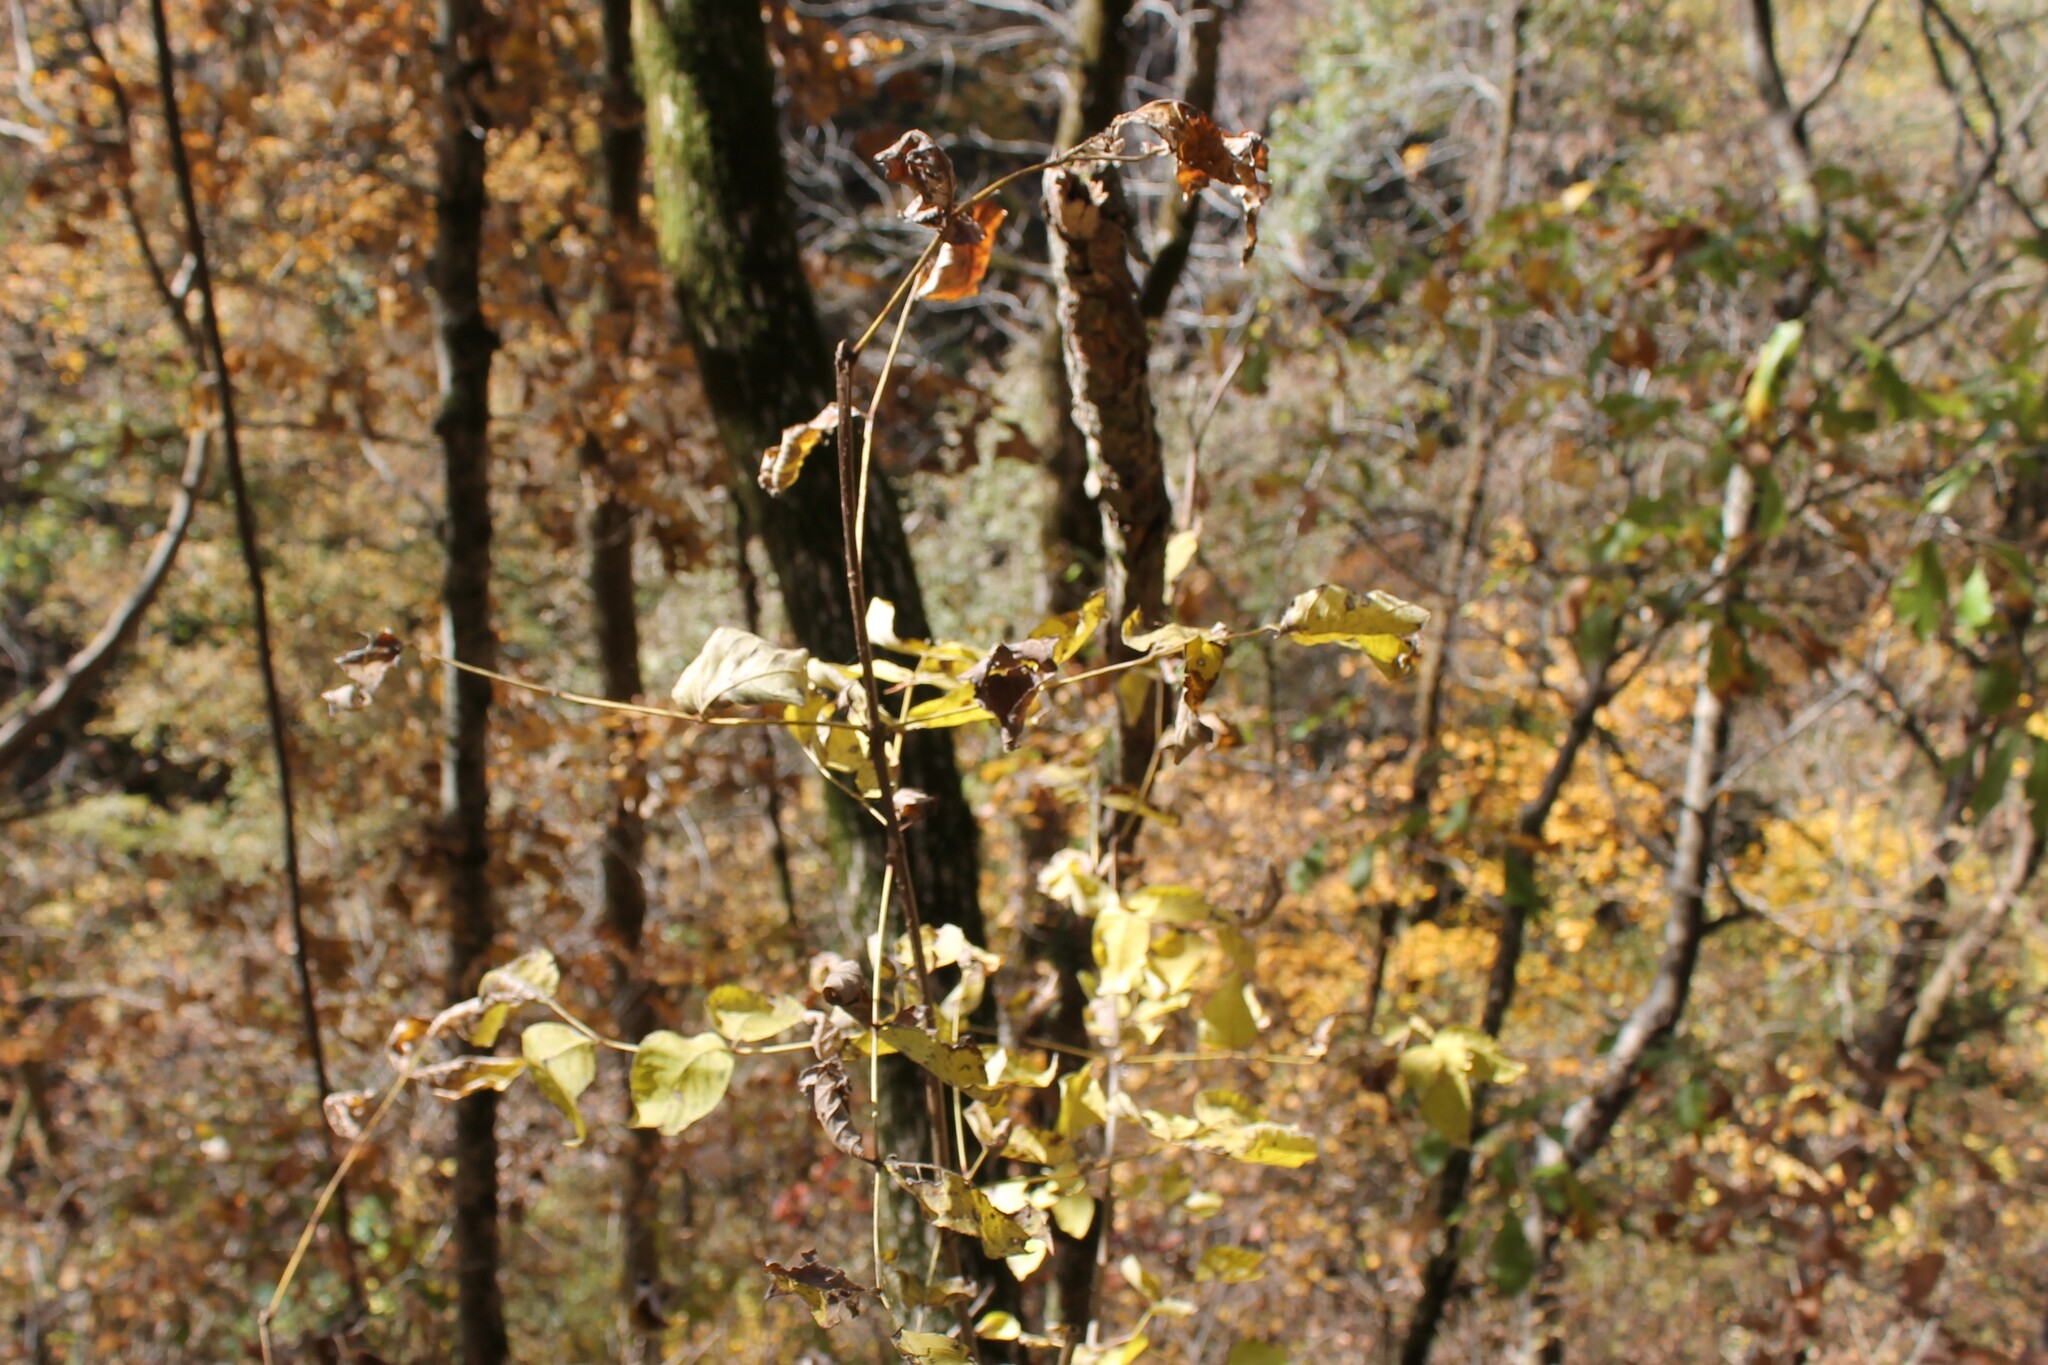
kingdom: Plantae
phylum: Tracheophyta
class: Magnoliopsida
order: Lamiales
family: Oleaceae
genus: Fraxinus
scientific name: Fraxinus quadrangulata
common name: Blue ash
